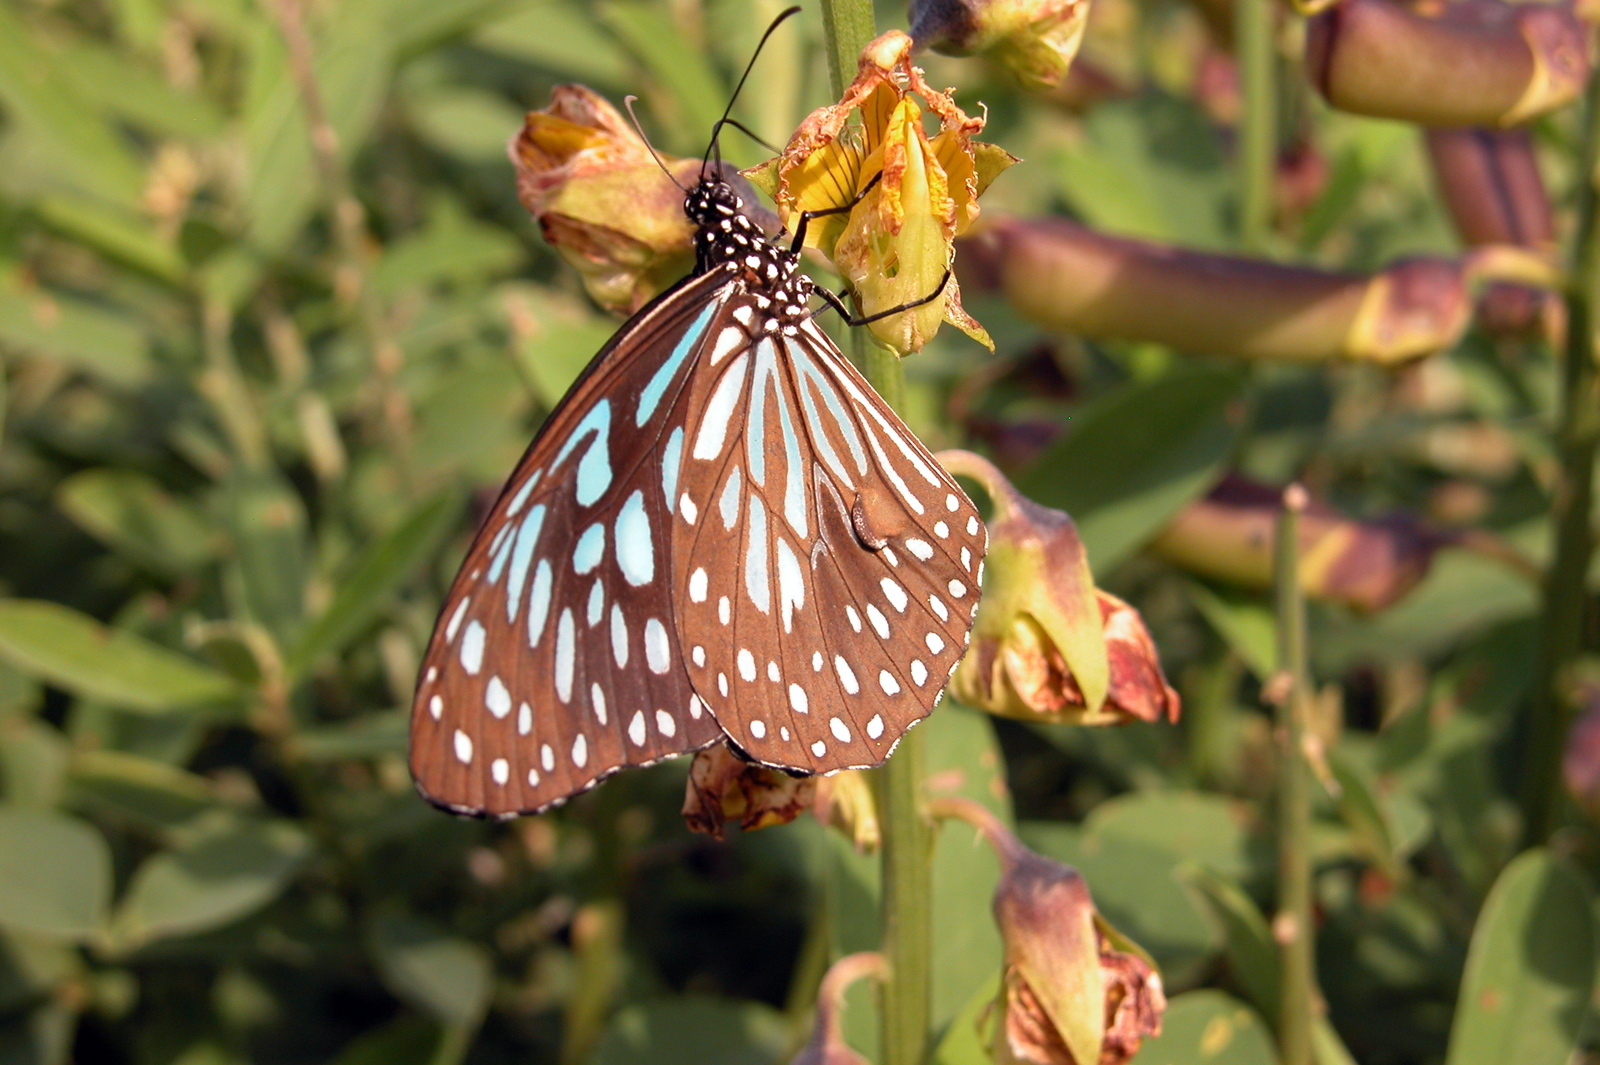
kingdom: Animalia
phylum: Arthropoda
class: Insecta
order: Lepidoptera
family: Nymphalidae
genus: Tirumala
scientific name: Tirumala septentrionis
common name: Dark blue tiger butterfly
